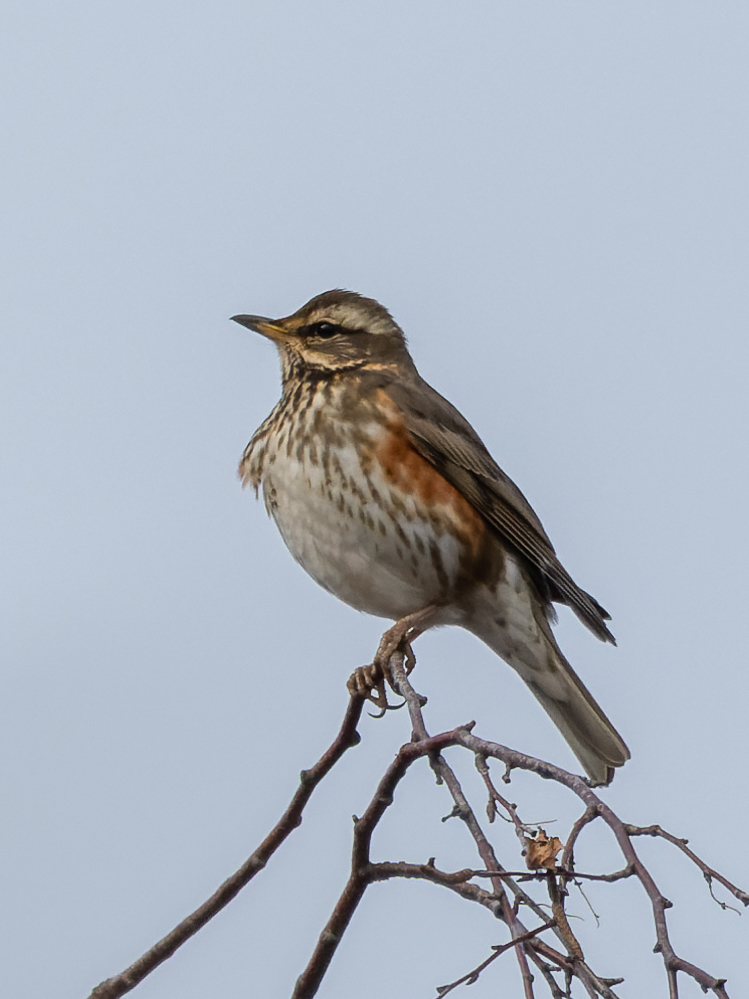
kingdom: Animalia
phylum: Chordata
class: Aves
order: Passeriformes
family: Turdidae
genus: Turdus
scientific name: Turdus iliacus
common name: Redwing
